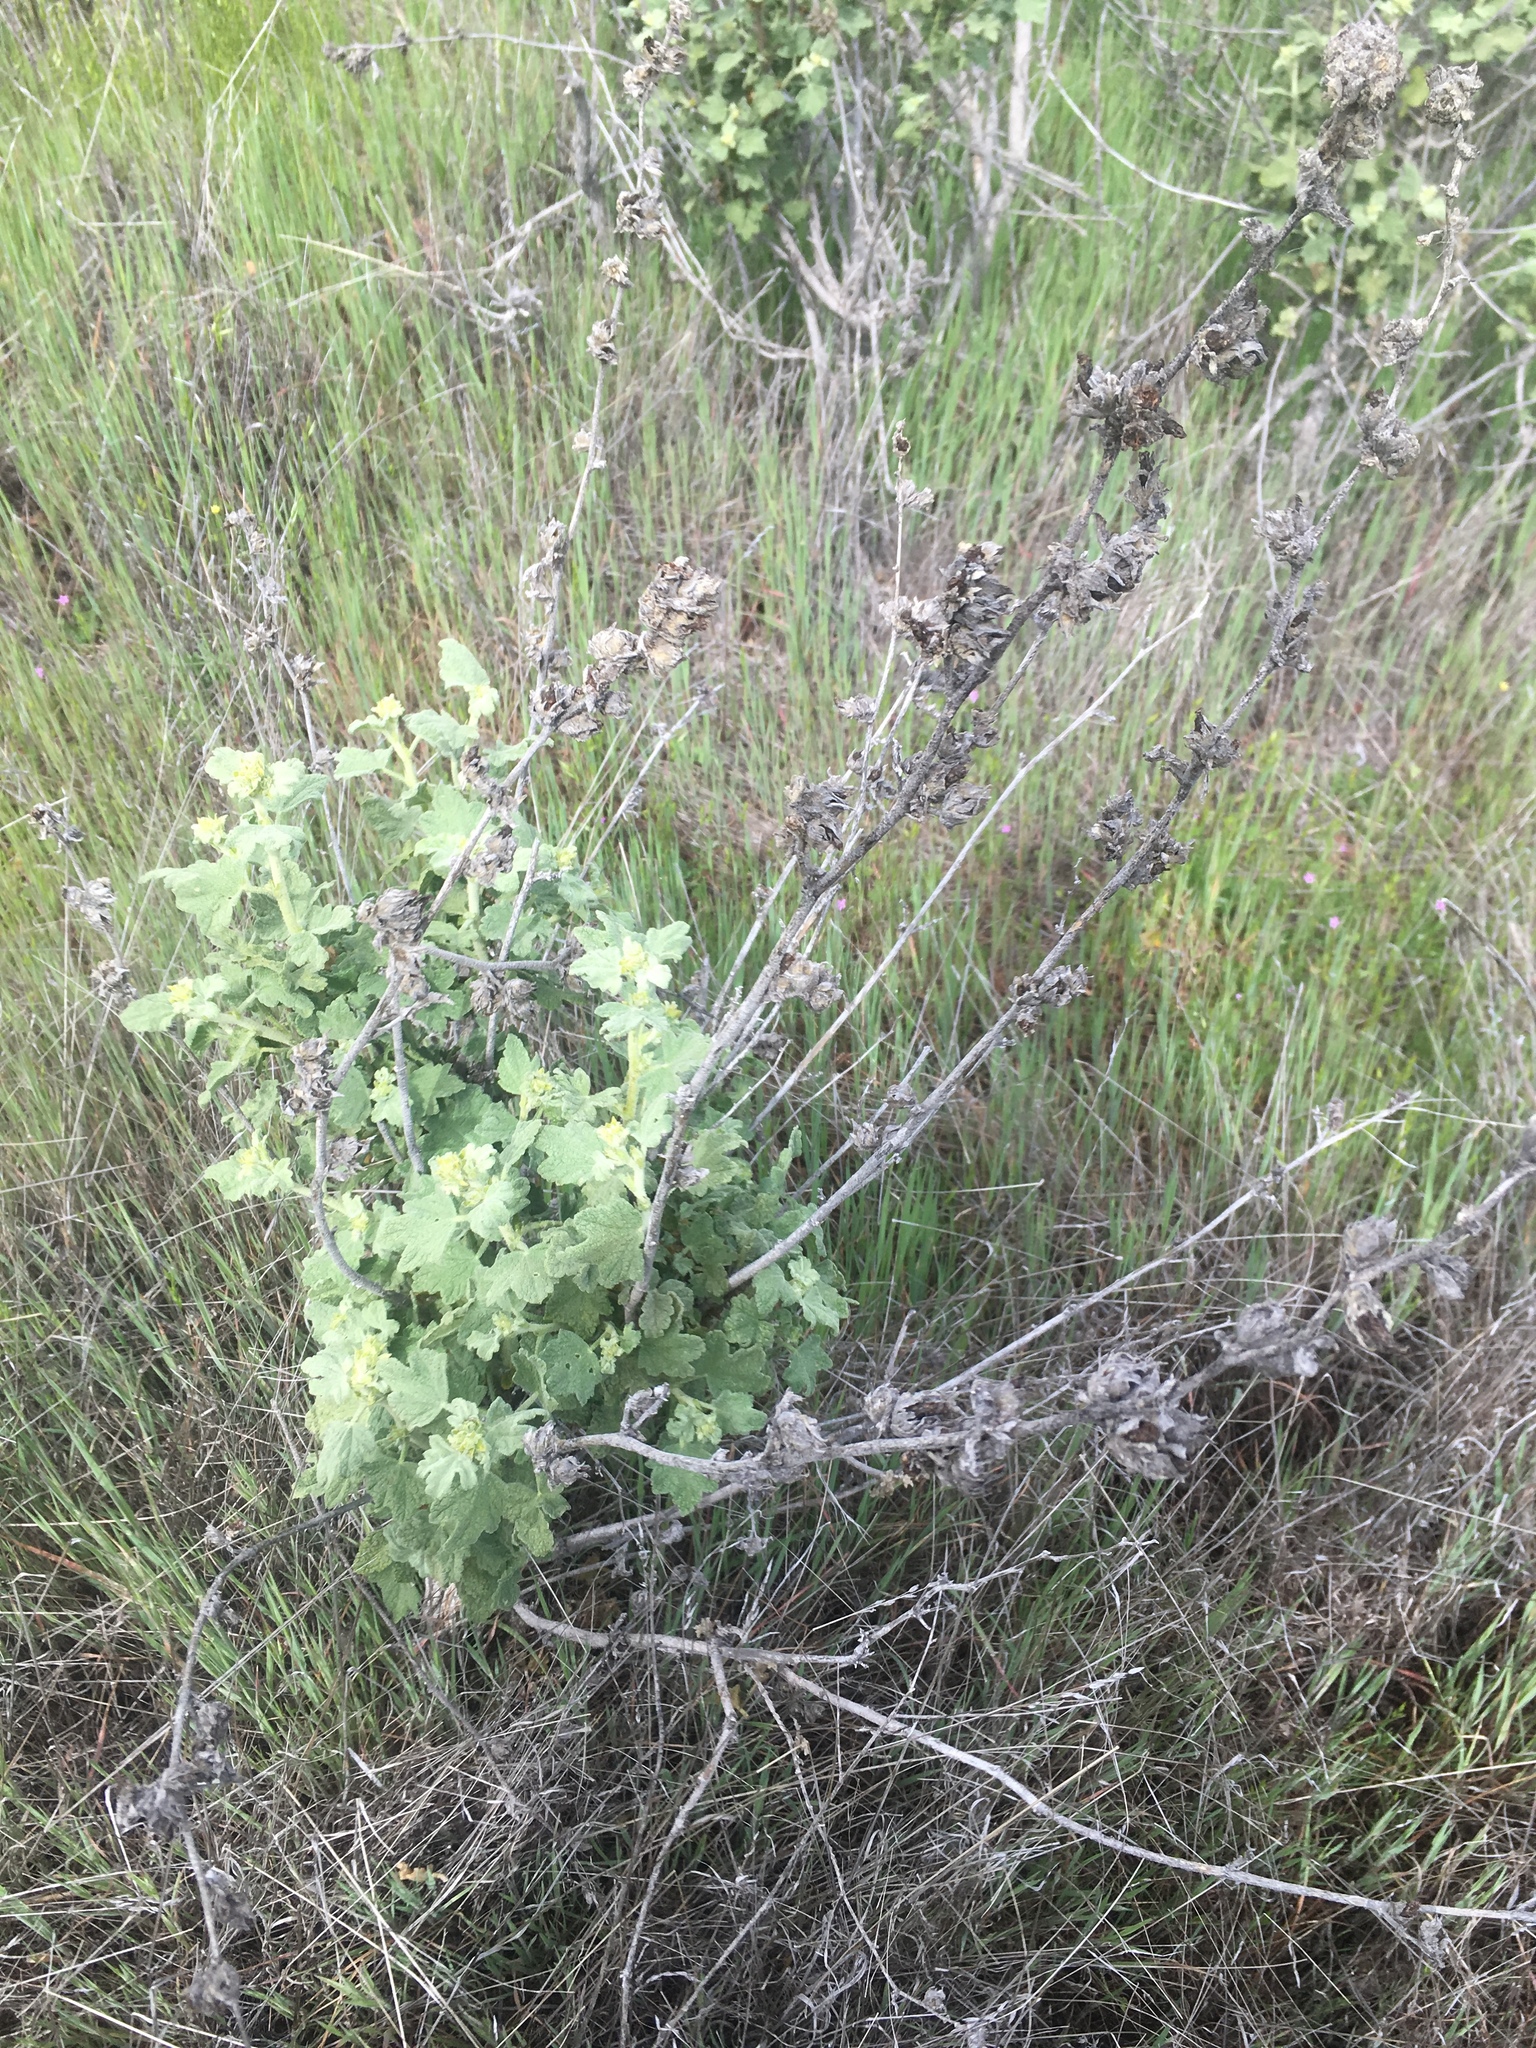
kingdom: Plantae
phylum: Tracheophyta
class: Magnoliopsida
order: Malvales
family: Malvaceae
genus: Malacothamnus
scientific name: Malacothamnus aboriginum
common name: Indian valley bush-mallow
